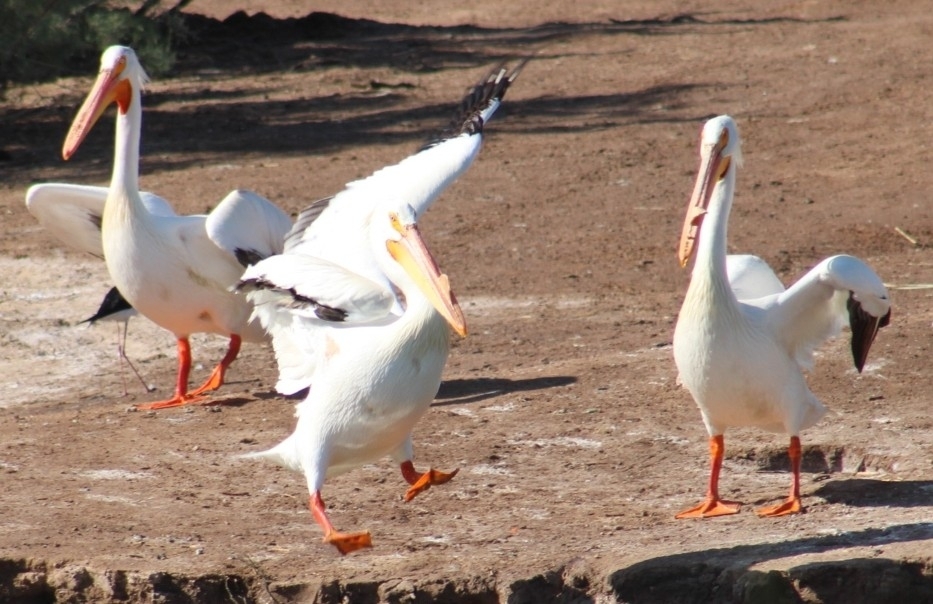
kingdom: Animalia
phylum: Chordata
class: Aves
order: Pelecaniformes
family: Pelecanidae
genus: Pelecanus
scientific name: Pelecanus erythrorhynchos
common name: American white pelican
